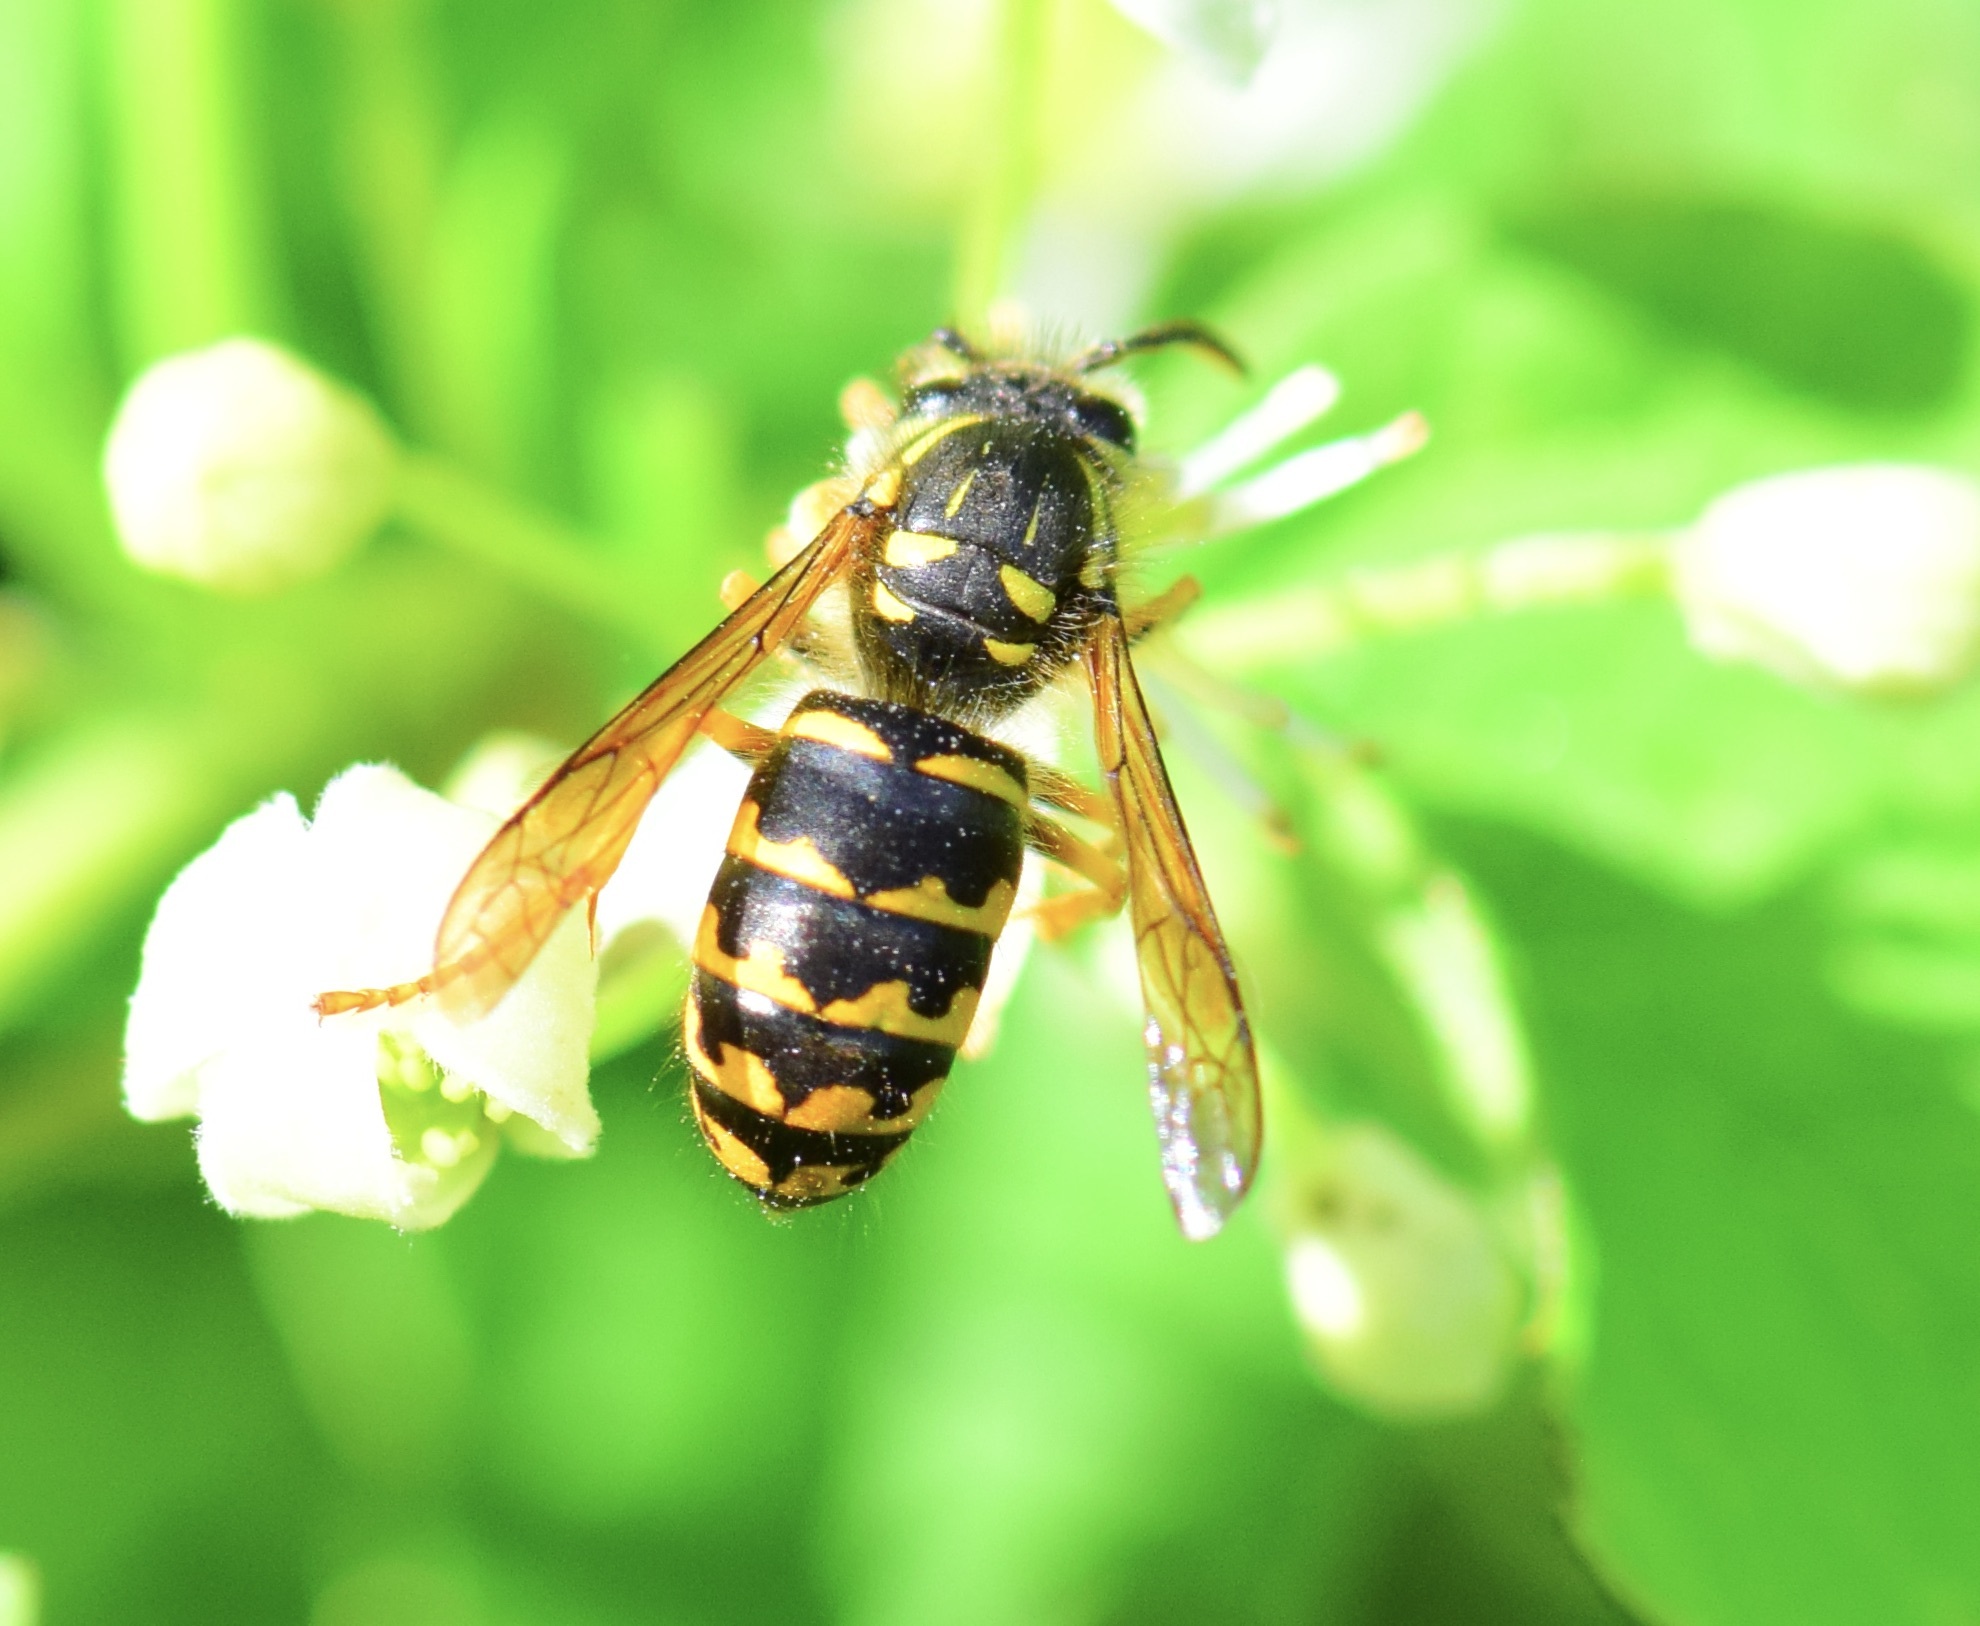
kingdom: Animalia
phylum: Arthropoda
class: Insecta
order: Hymenoptera
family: Vespidae
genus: Dolichovespula
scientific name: Dolichovespula arenaria
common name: Aerial yellowjacket
